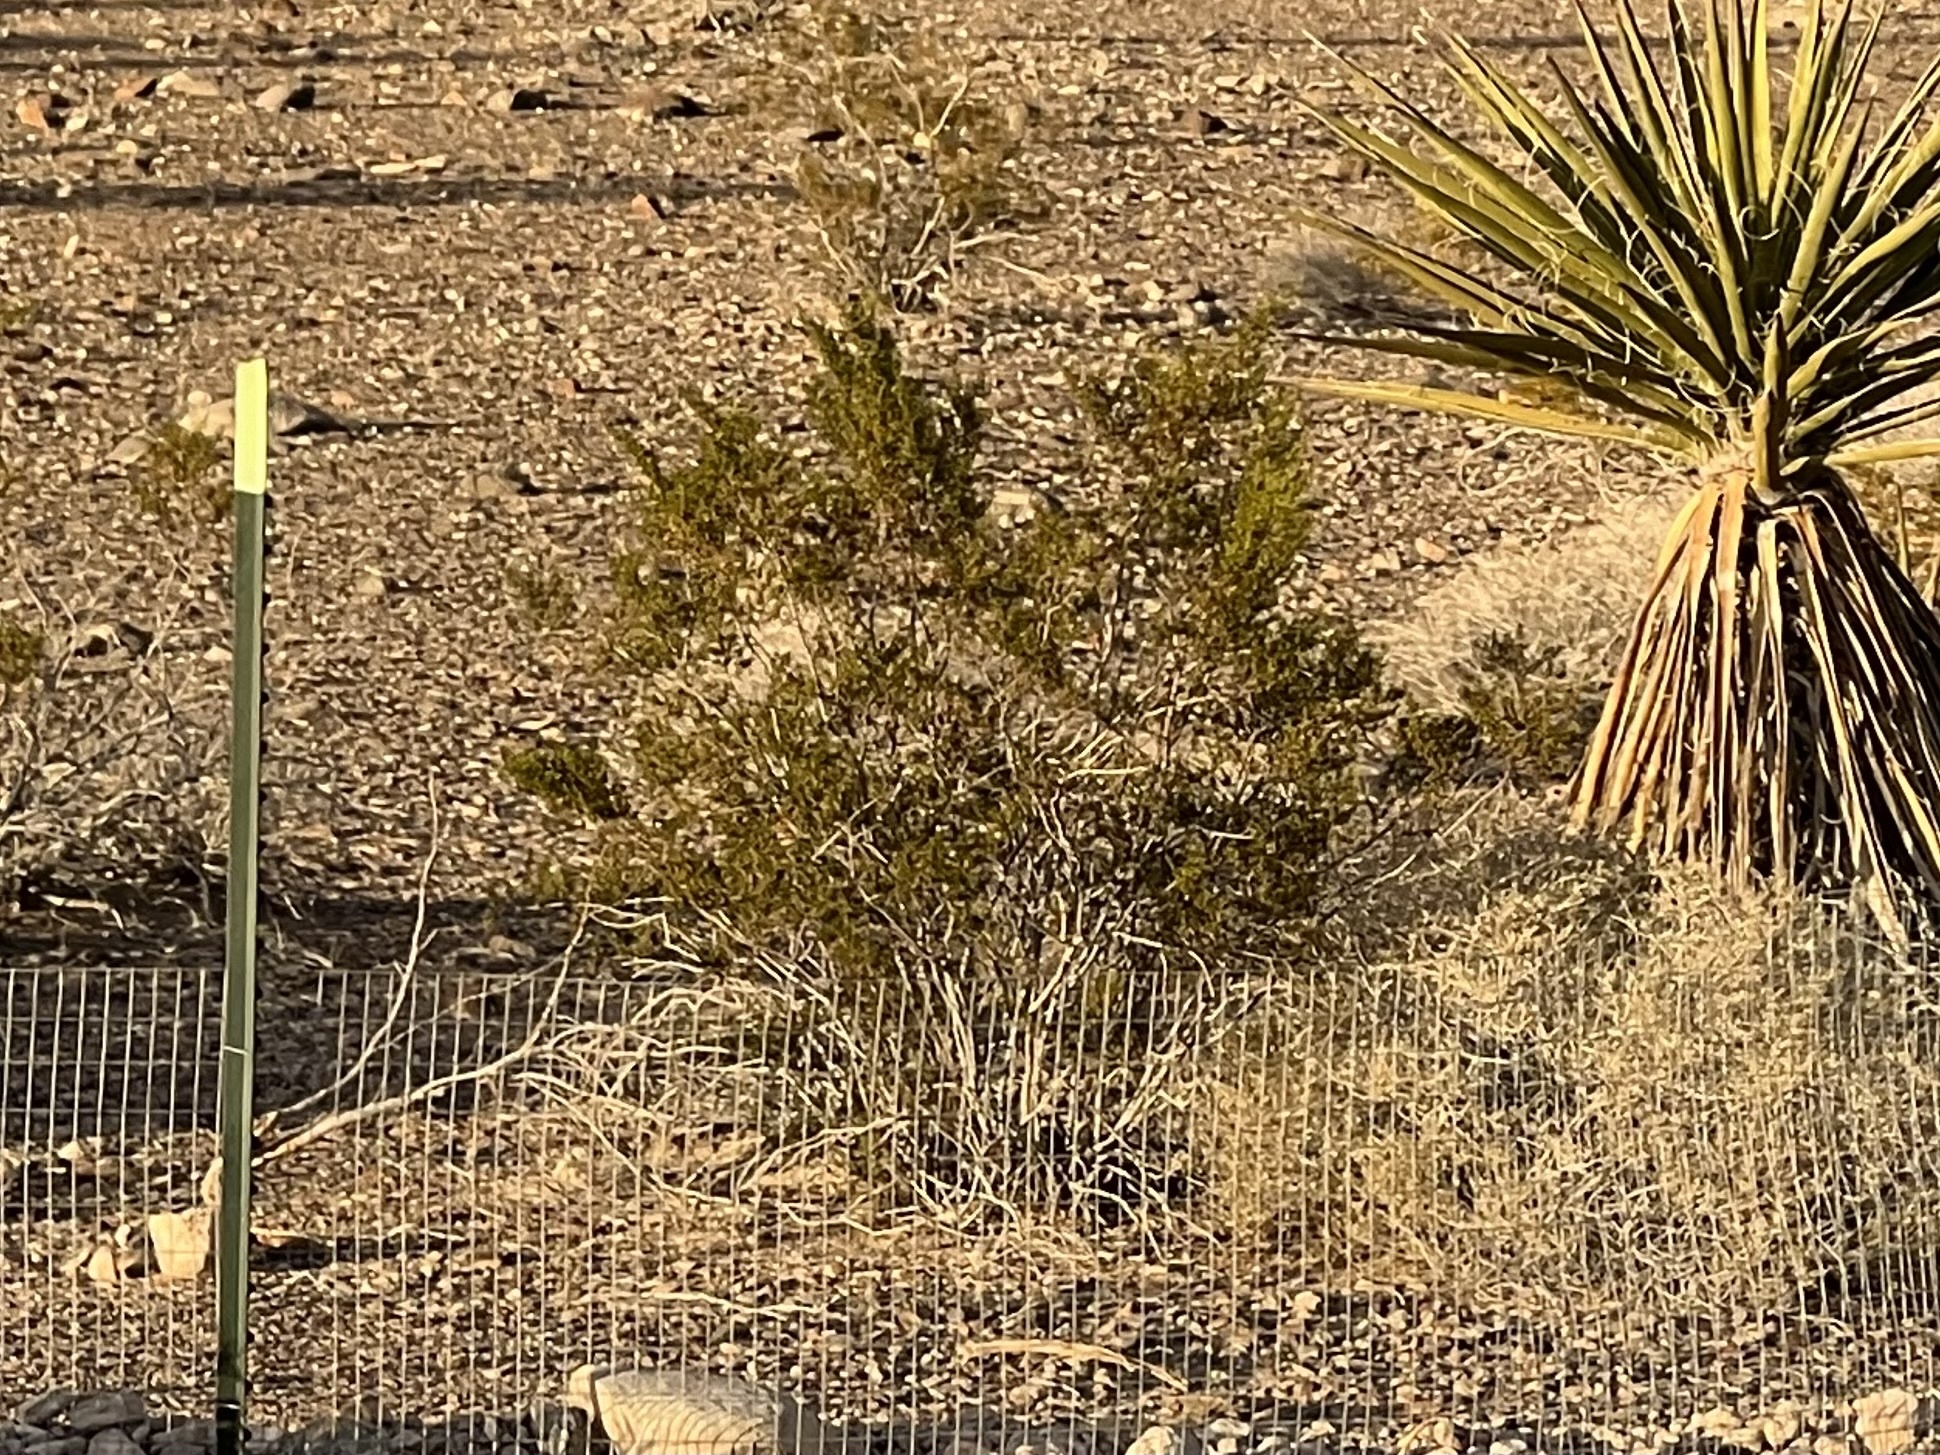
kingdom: Plantae
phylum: Tracheophyta
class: Magnoliopsida
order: Zygophyllales
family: Zygophyllaceae
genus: Larrea
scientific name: Larrea tridentata
